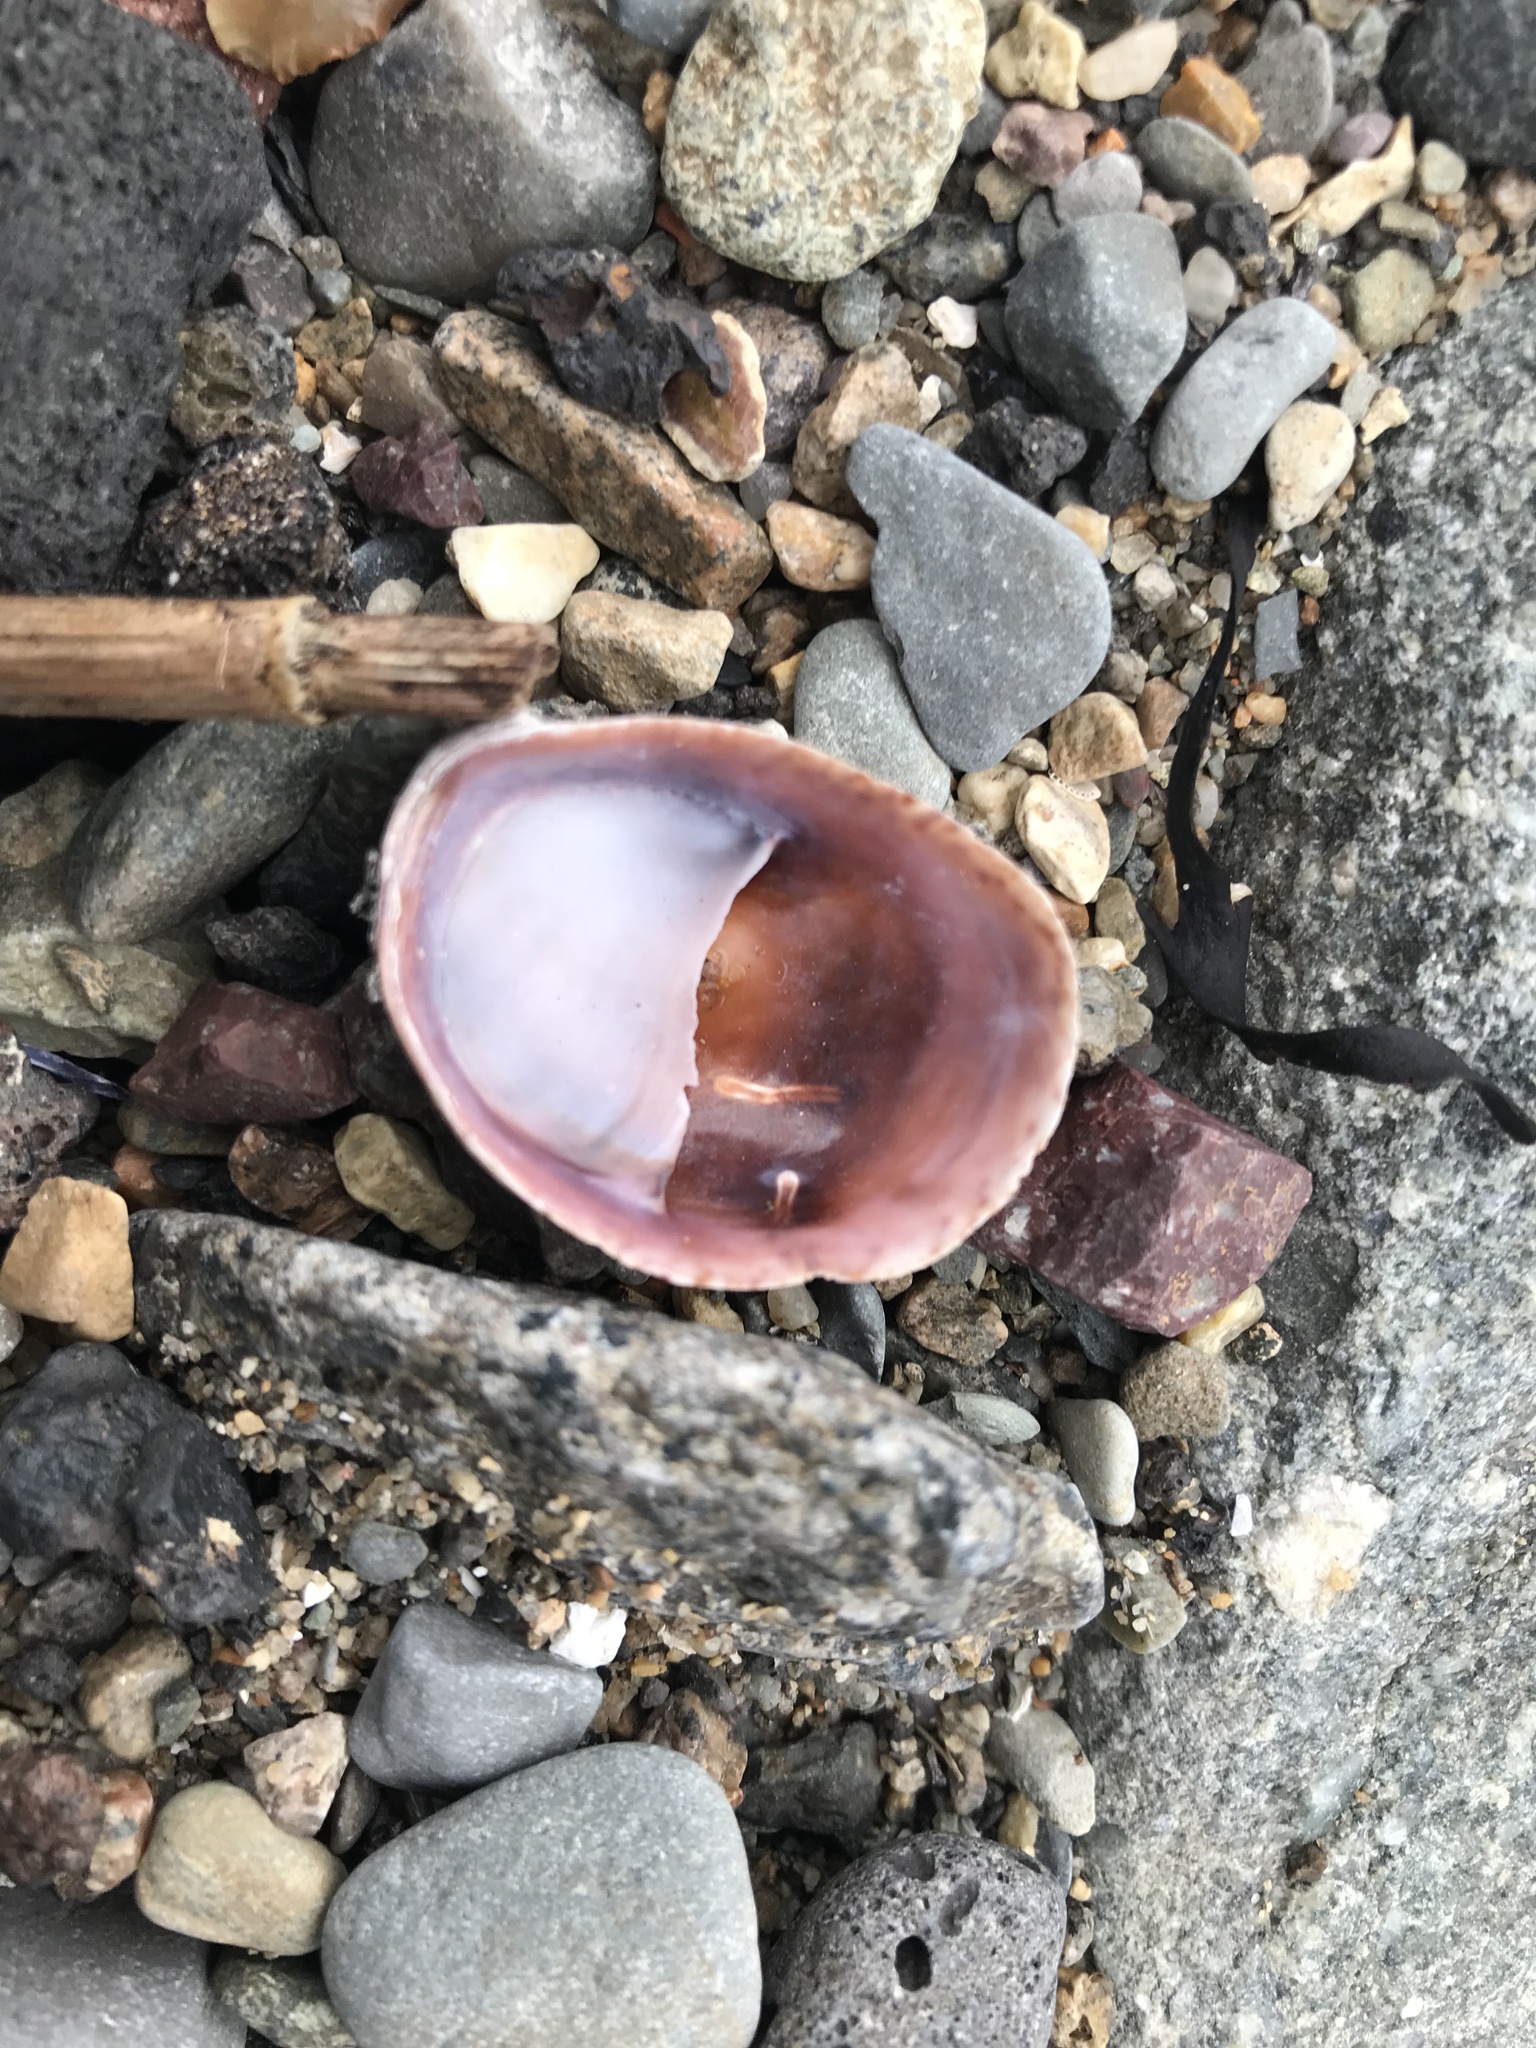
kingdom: Animalia
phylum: Mollusca
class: Gastropoda
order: Littorinimorpha
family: Calyptraeidae
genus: Crepidula
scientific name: Crepidula fornicata
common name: Slipper limpet
